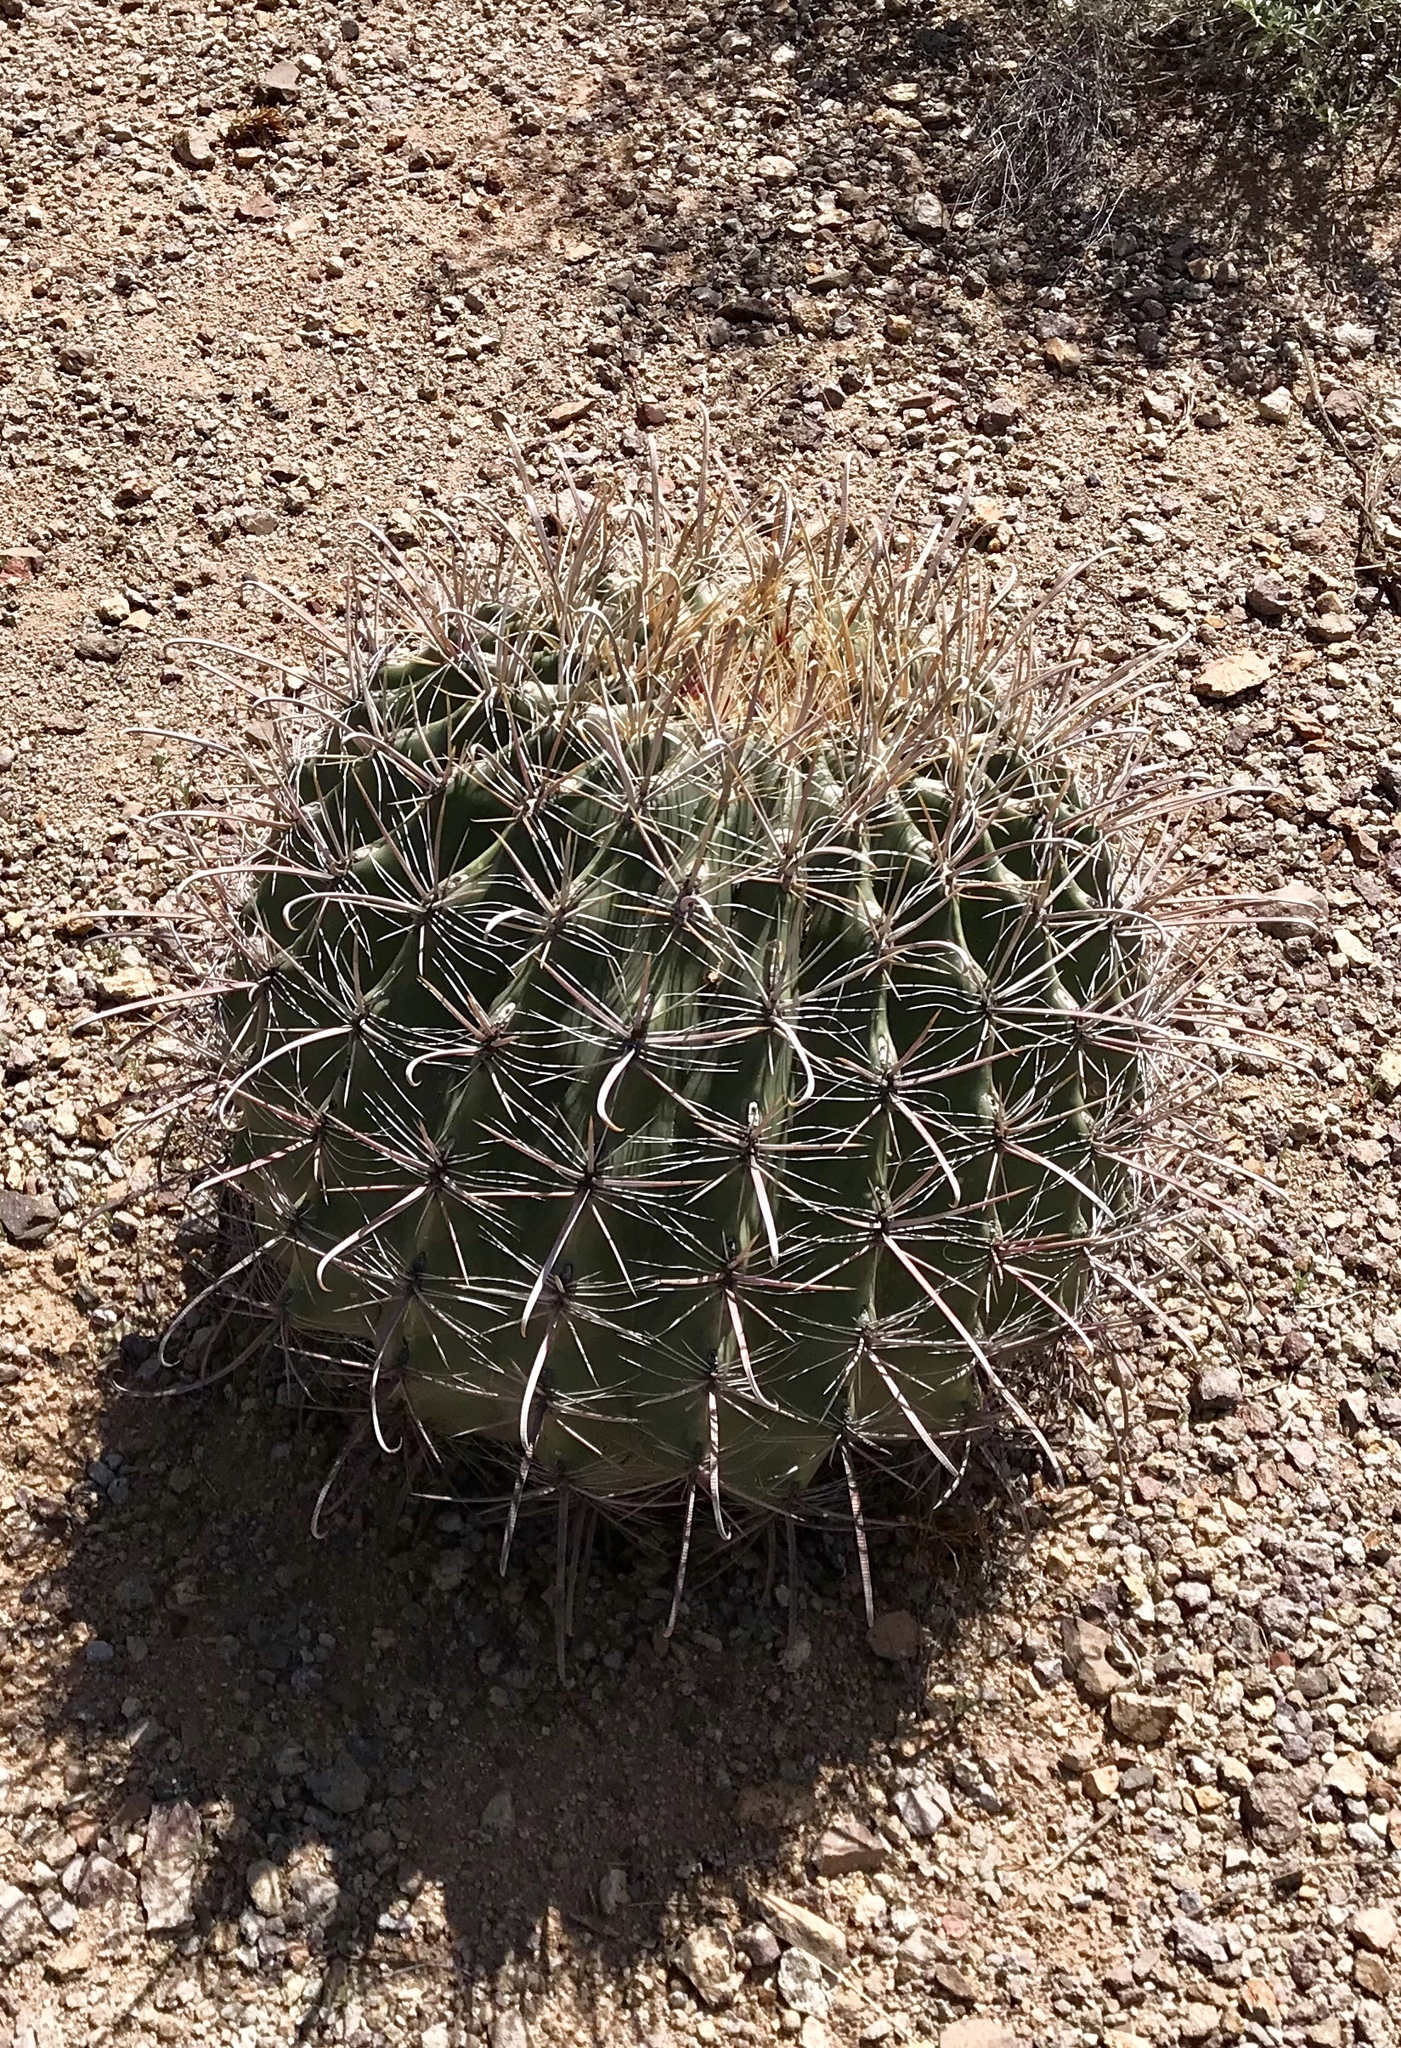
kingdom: Plantae
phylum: Tracheophyta
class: Magnoliopsida
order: Caryophyllales
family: Cactaceae
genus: Ferocactus
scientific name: Ferocactus wislizeni
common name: Candy barrel cactus
